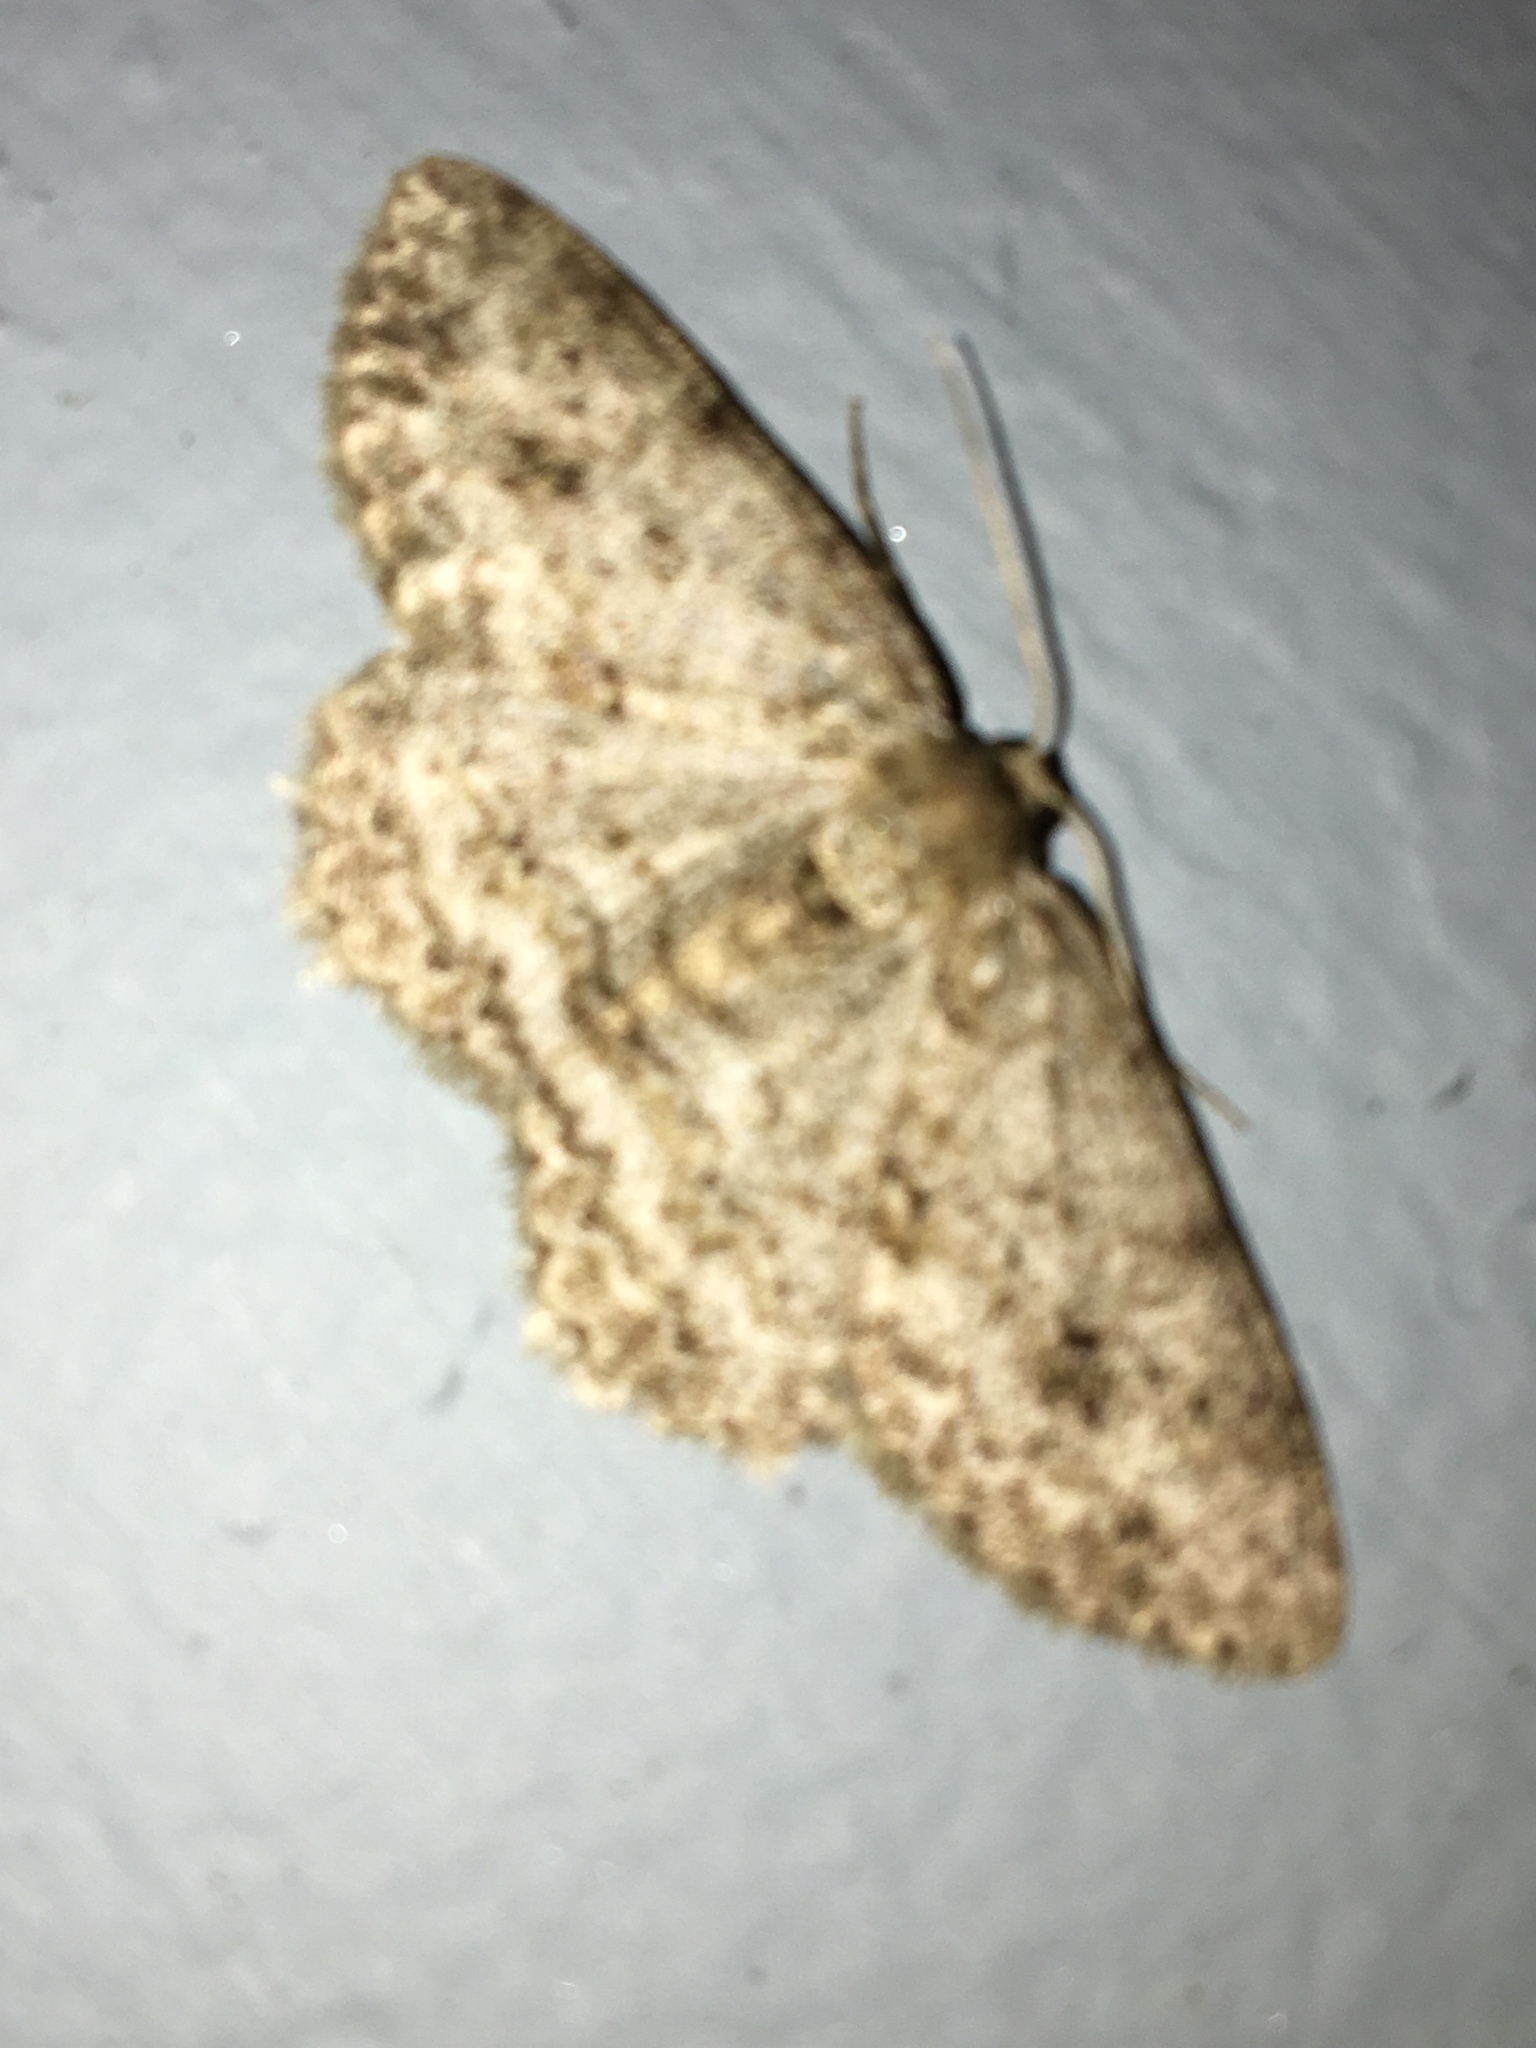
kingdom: Animalia
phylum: Arthropoda
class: Insecta
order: Lepidoptera
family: Geometridae
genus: Ectropis
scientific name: Ectropis crepuscularia
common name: Engrailed
